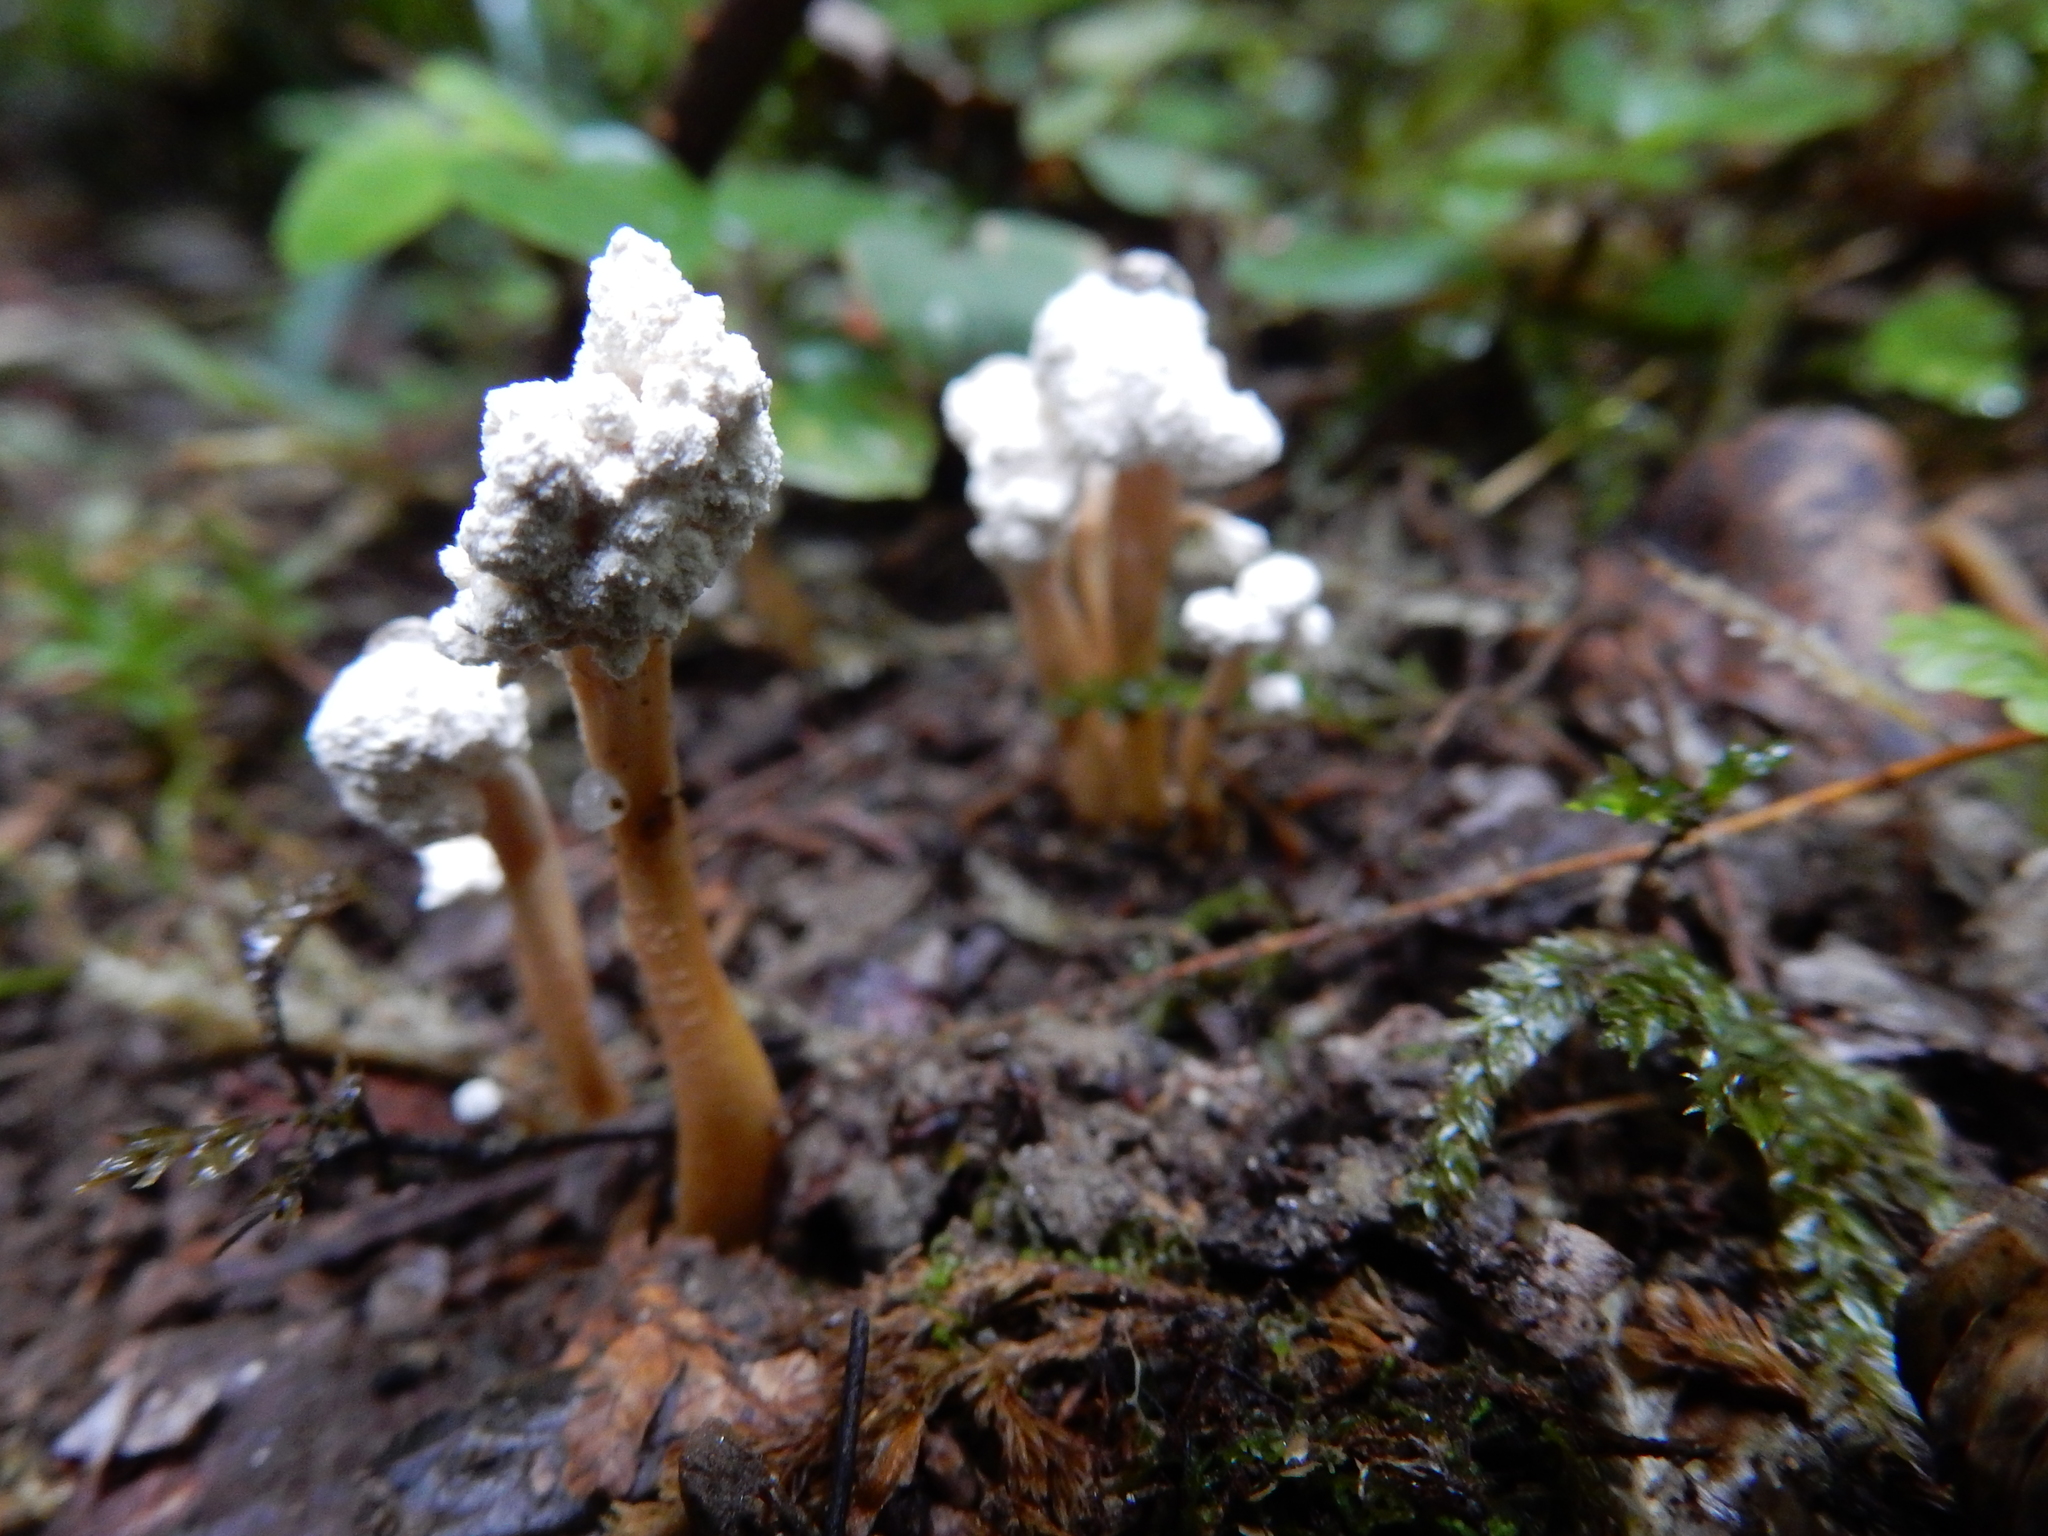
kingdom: Fungi
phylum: Ascomycota
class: Sordariomycetes
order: Hypocreales
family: Cordycipitaceae
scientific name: Cordycipitaceae
